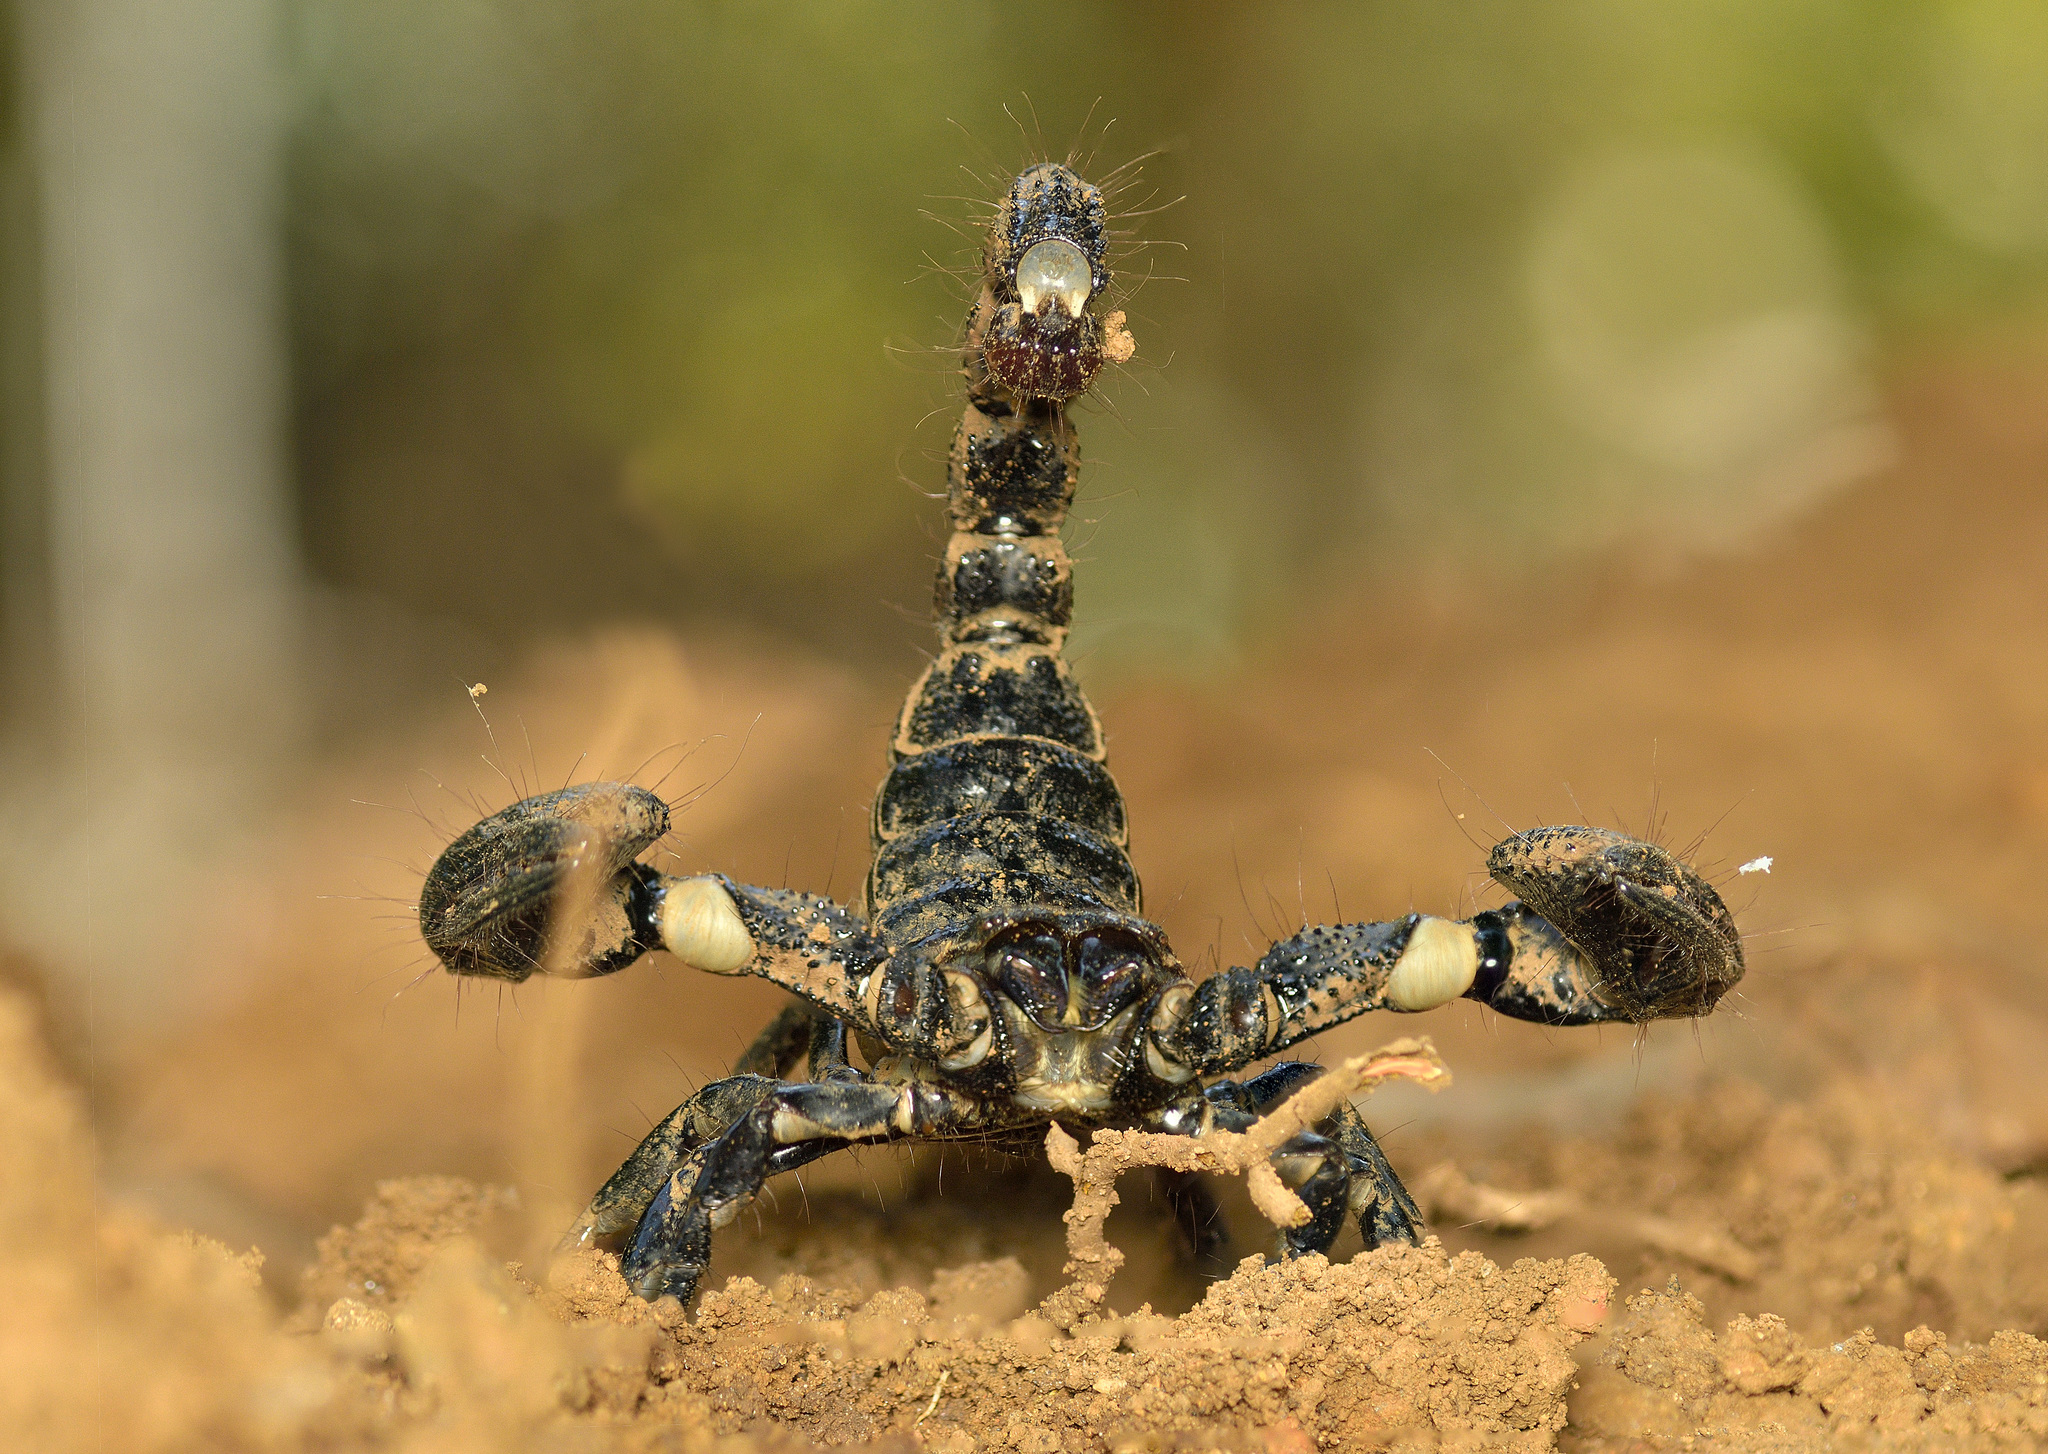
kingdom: Animalia
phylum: Arthropoda
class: Arachnida
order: Scorpiones
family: Scorpionidae
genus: Sahyadrimetrus
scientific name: Sahyadrimetrus scaber
